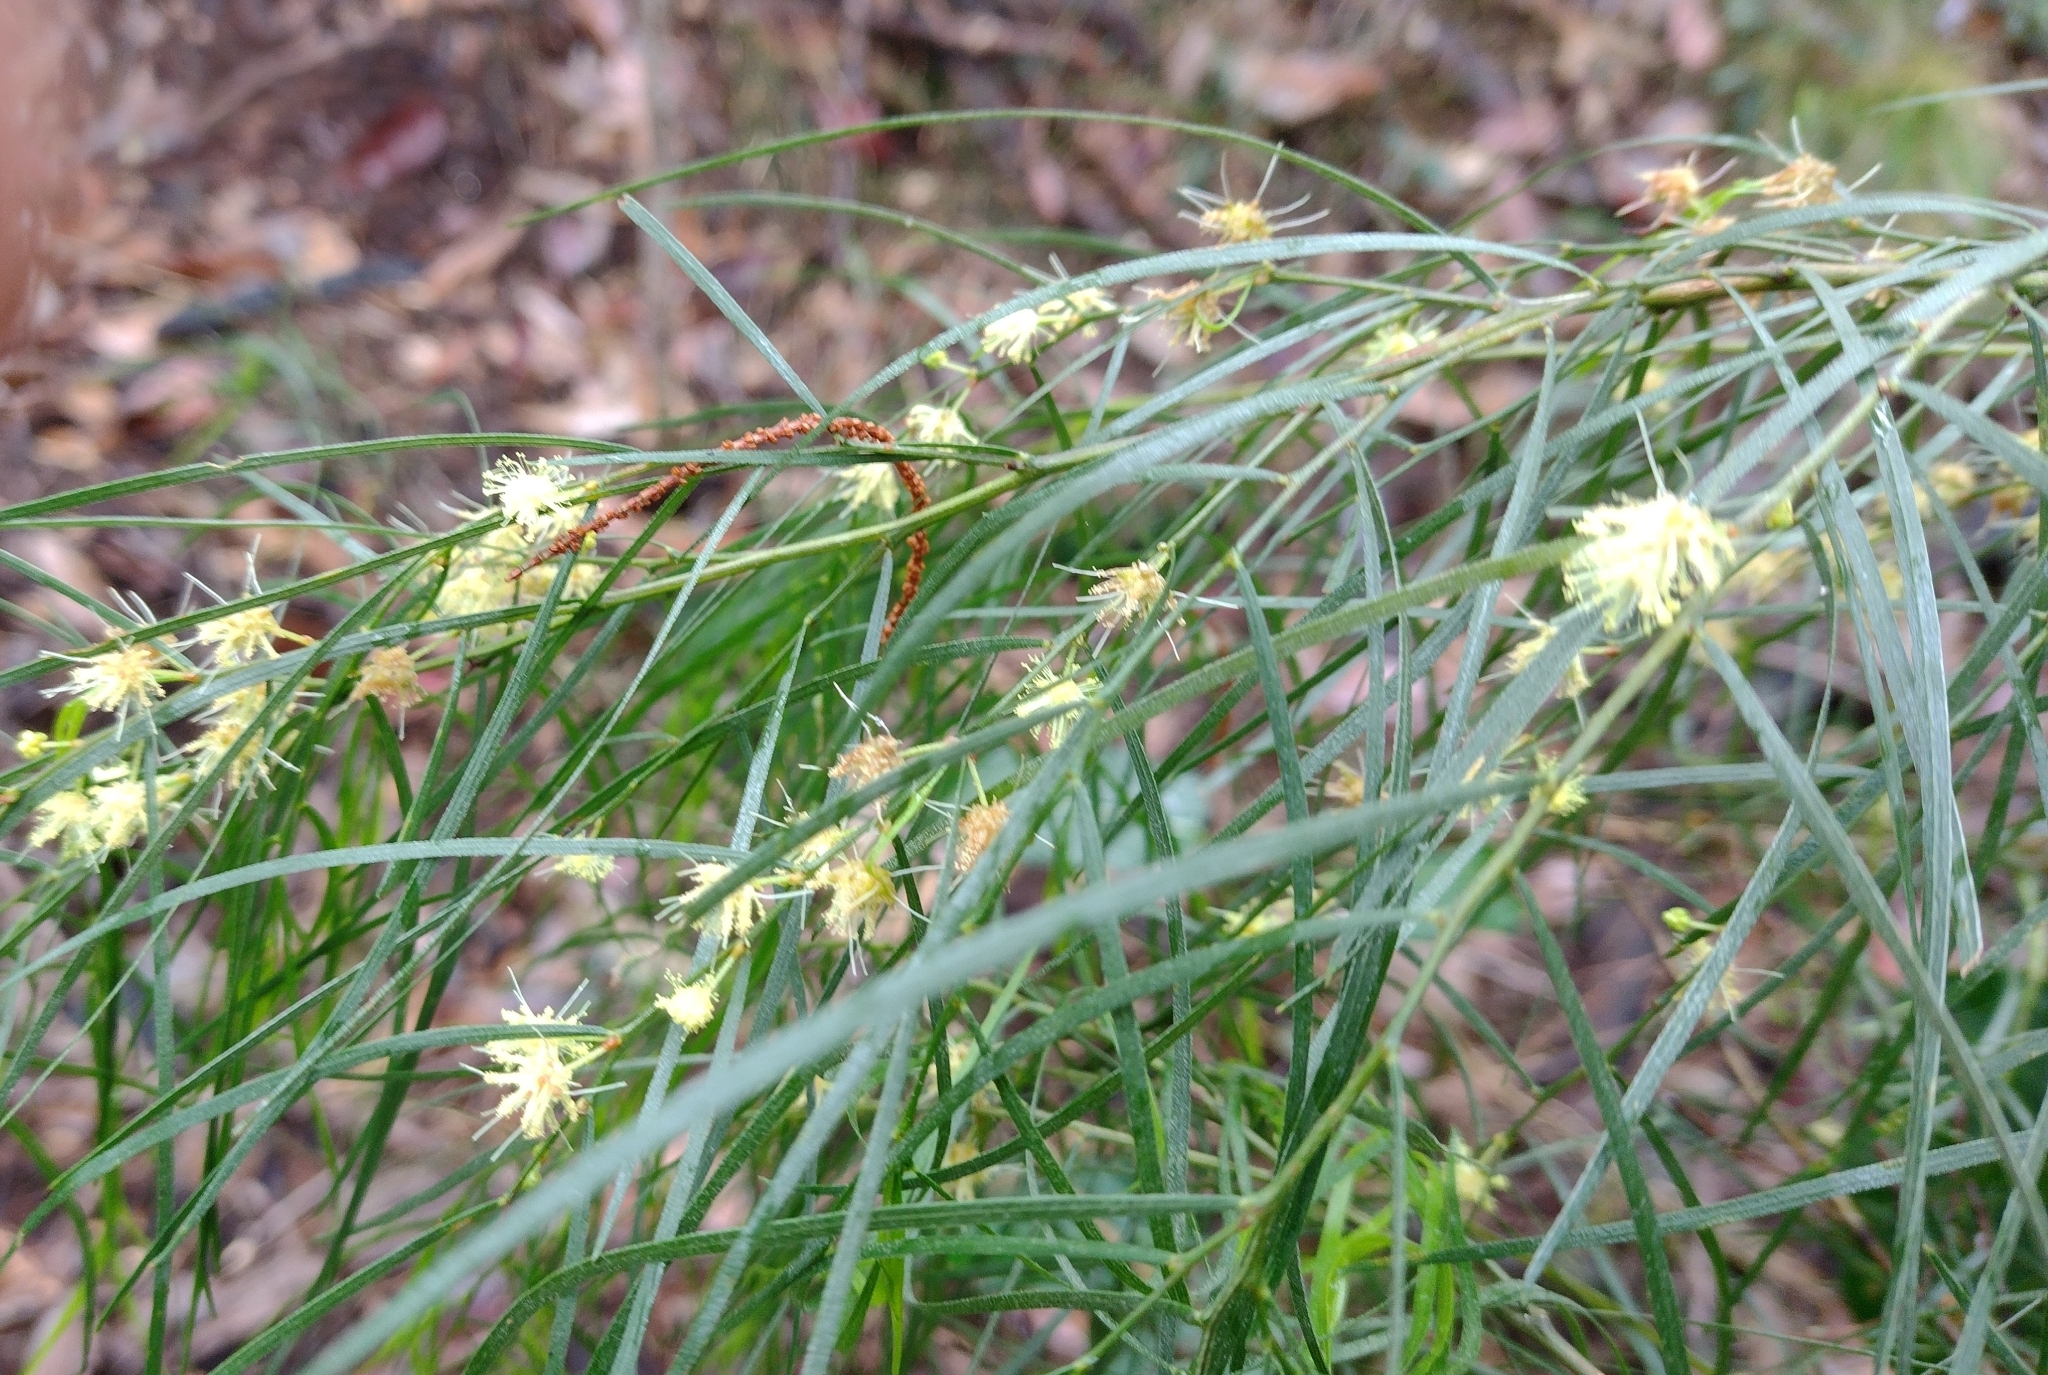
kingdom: Plantae
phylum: Tracheophyta
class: Magnoliopsida
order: Fabales
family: Fabaceae
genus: Acacia
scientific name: Acacia cognata
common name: Narrow-leaf bower wattle
